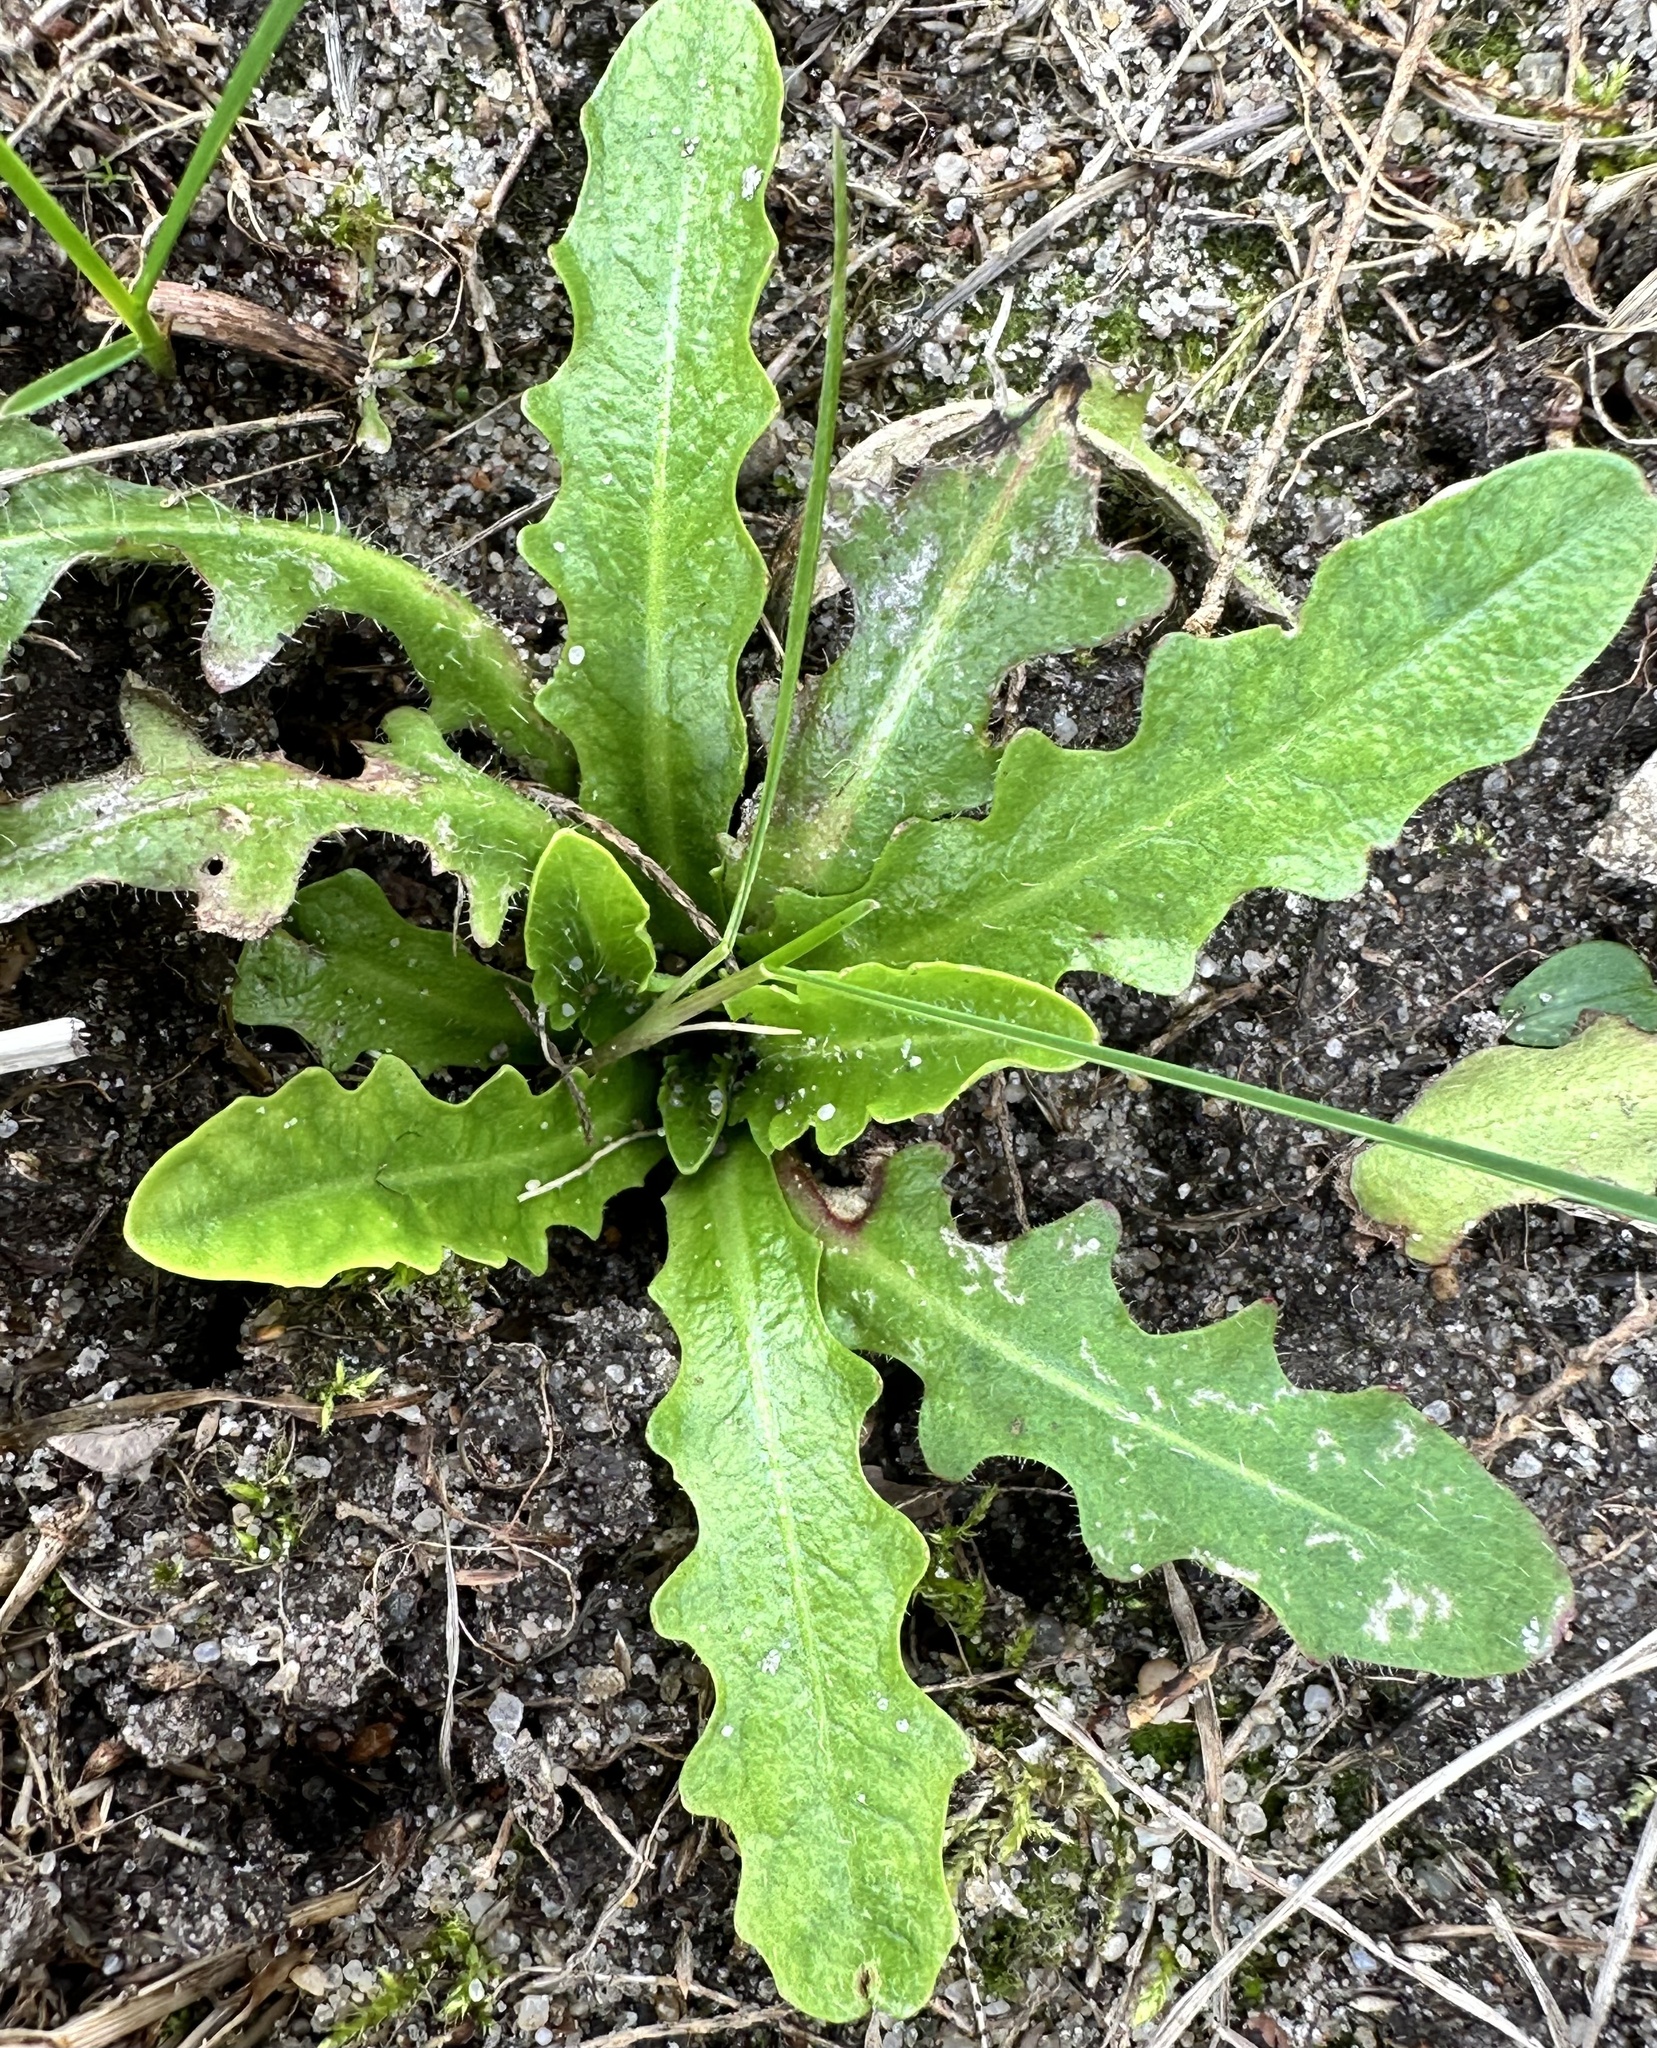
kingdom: Plantae
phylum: Tracheophyta
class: Magnoliopsida
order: Asterales
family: Asteraceae
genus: Hypochaeris
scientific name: Hypochaeris radicata
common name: Flatweed
